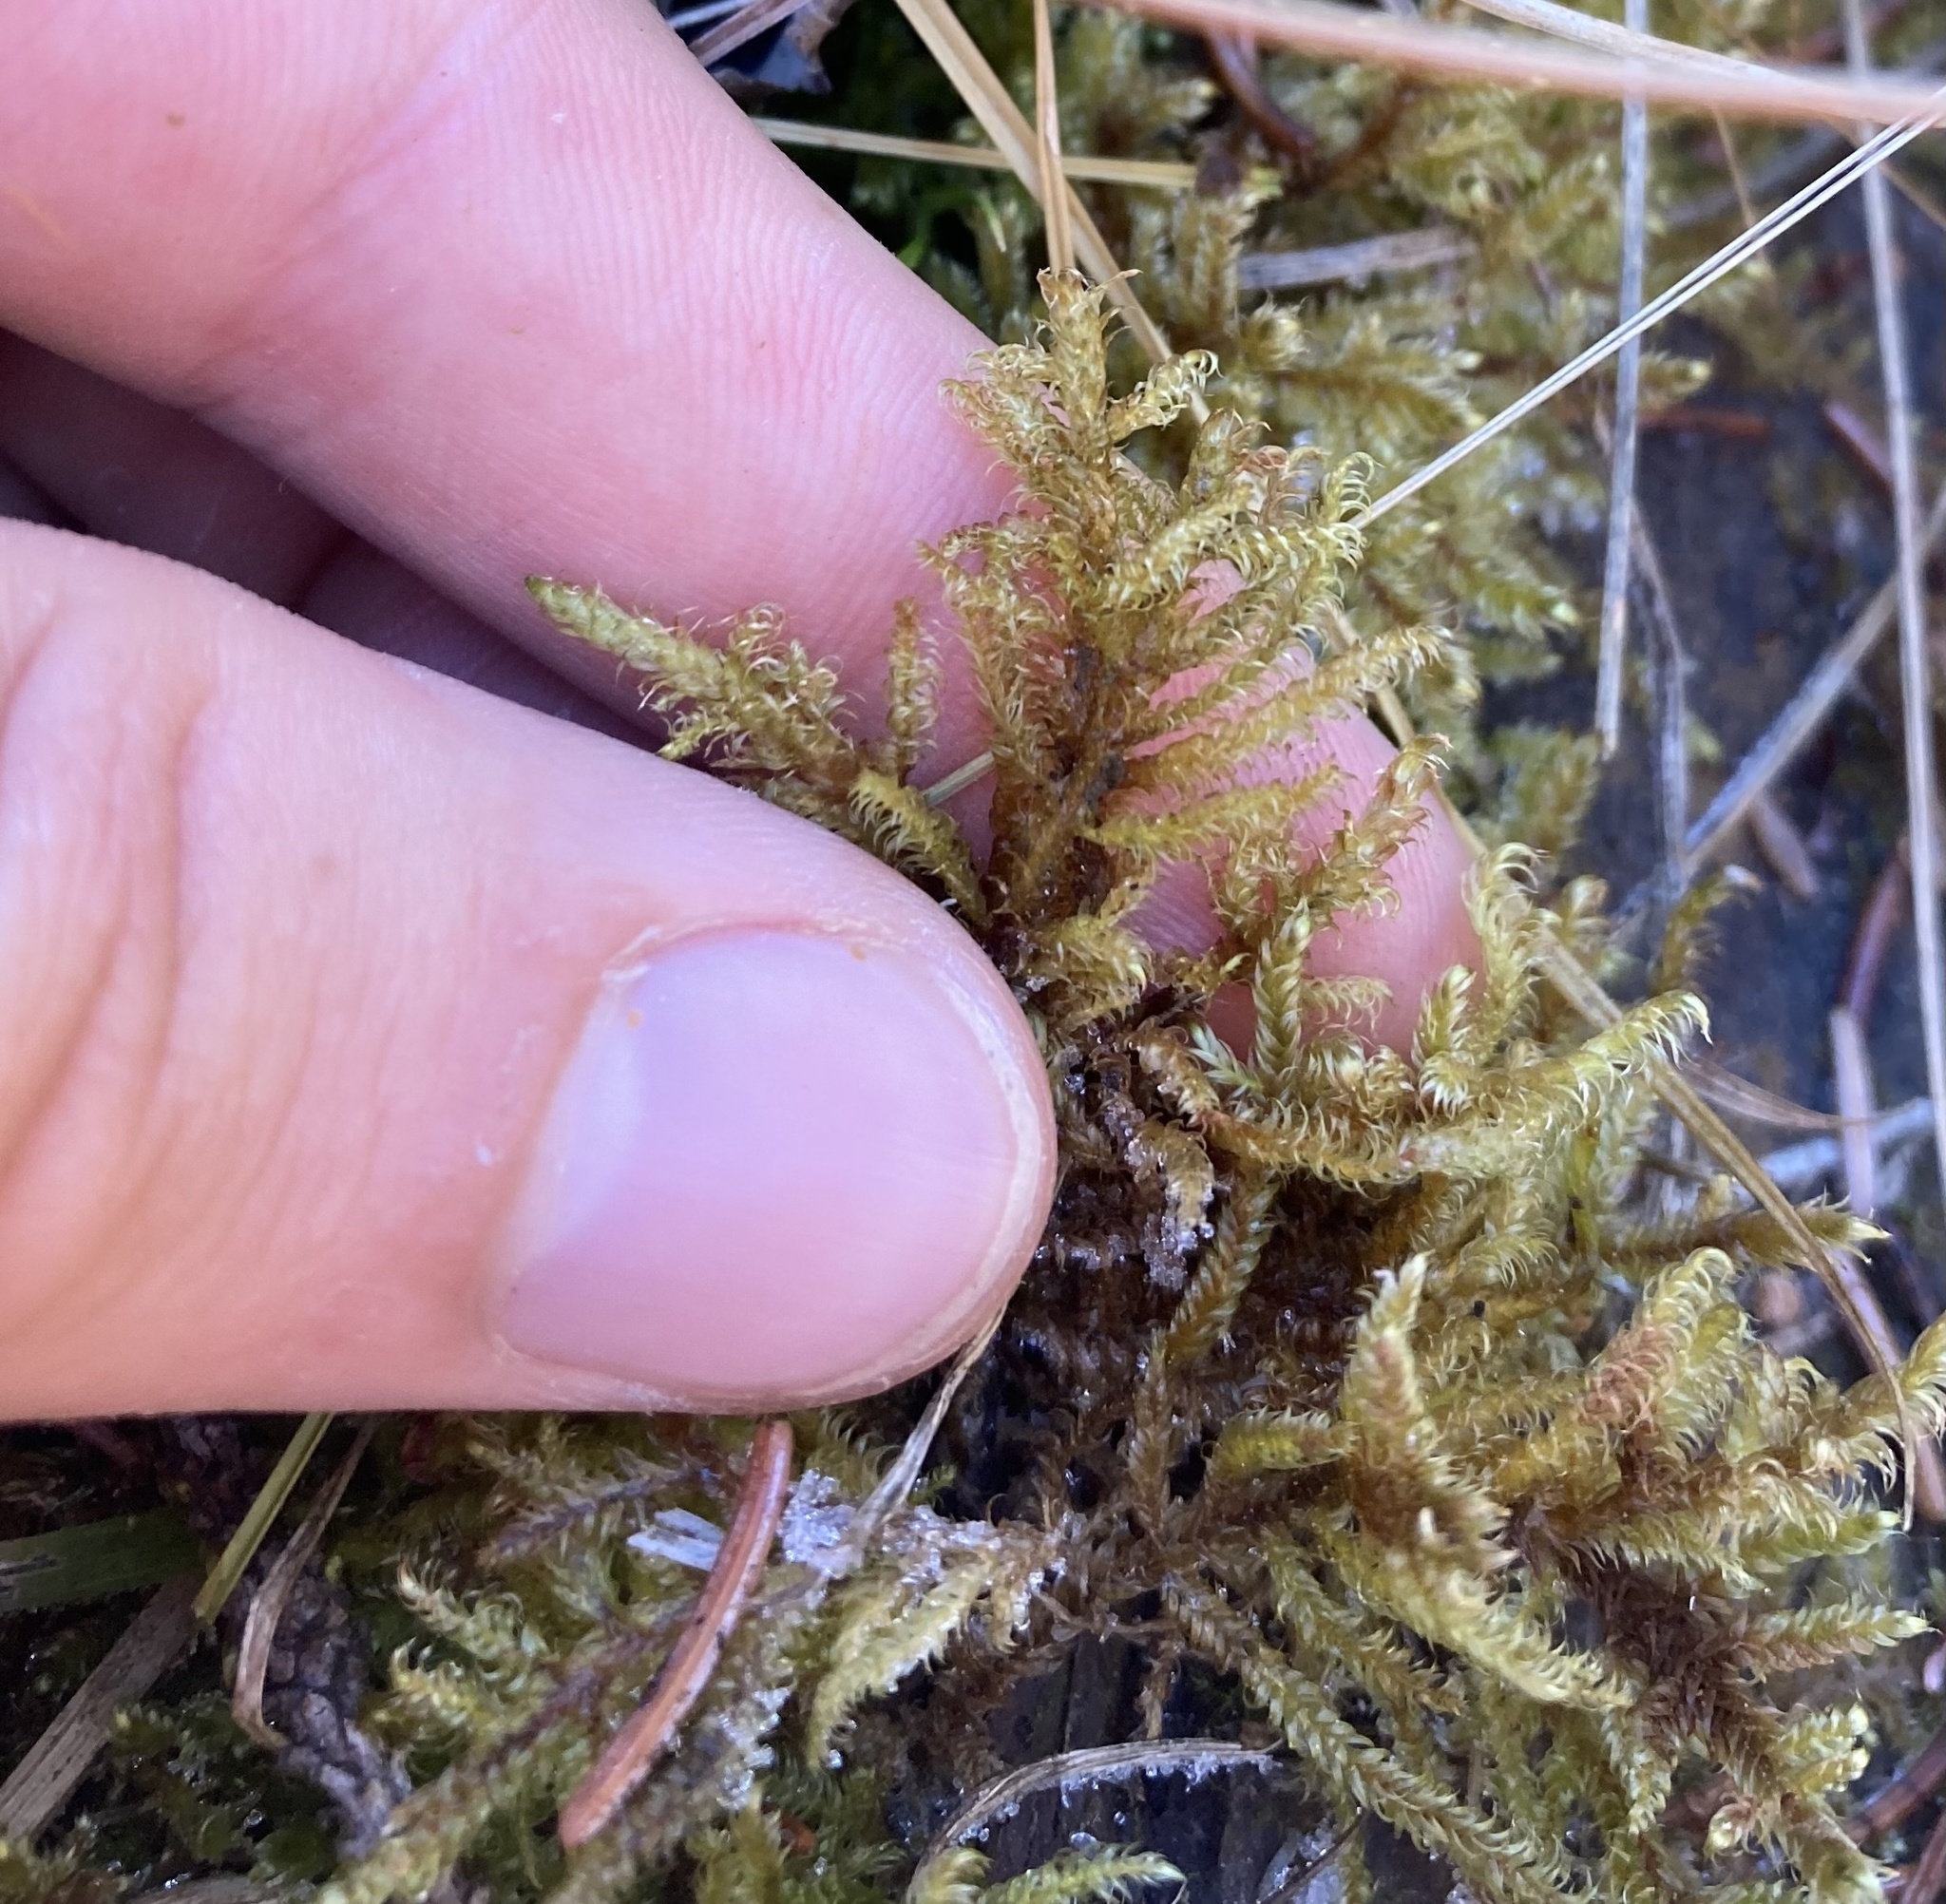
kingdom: Plantae
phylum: Bryophyta
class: Bryopsida
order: Hypnales
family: Amblystegiaceae
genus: Tomentypnum
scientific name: Tomentypnum falcifolium
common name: Sickle-leaved golden moss
